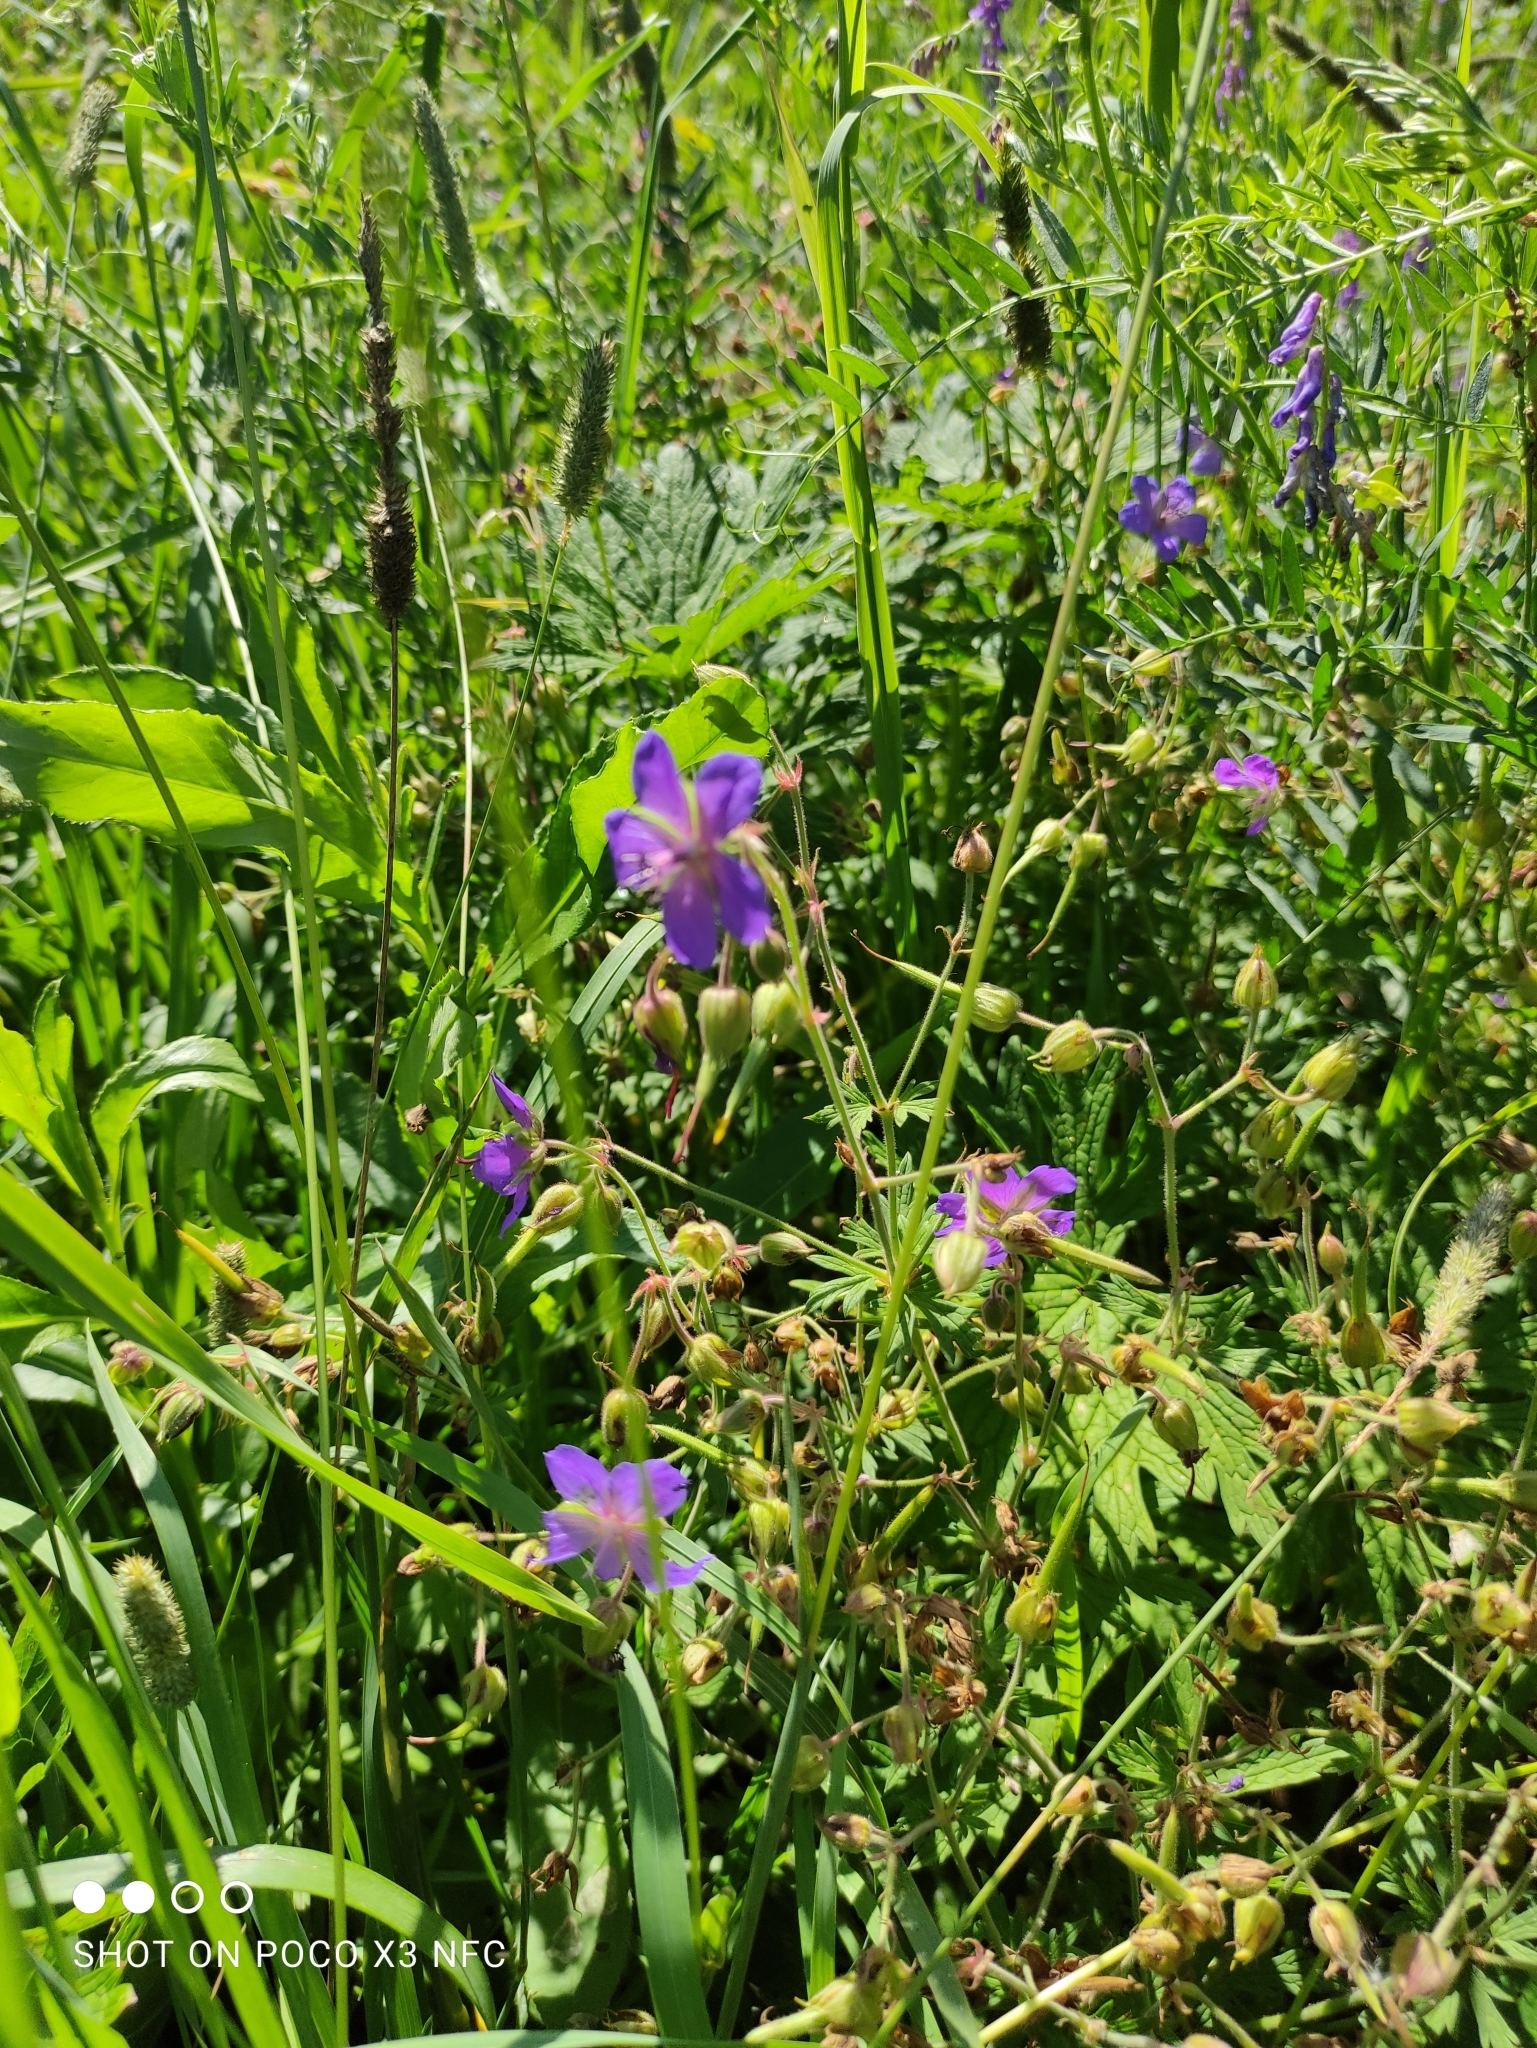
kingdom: Plantae
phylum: Tracheophyta
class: Magnoliopsida
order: Geraniales
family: Geraniaceae
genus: Geranium
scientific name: Geranium pratense
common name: Meadow crane's-bill
